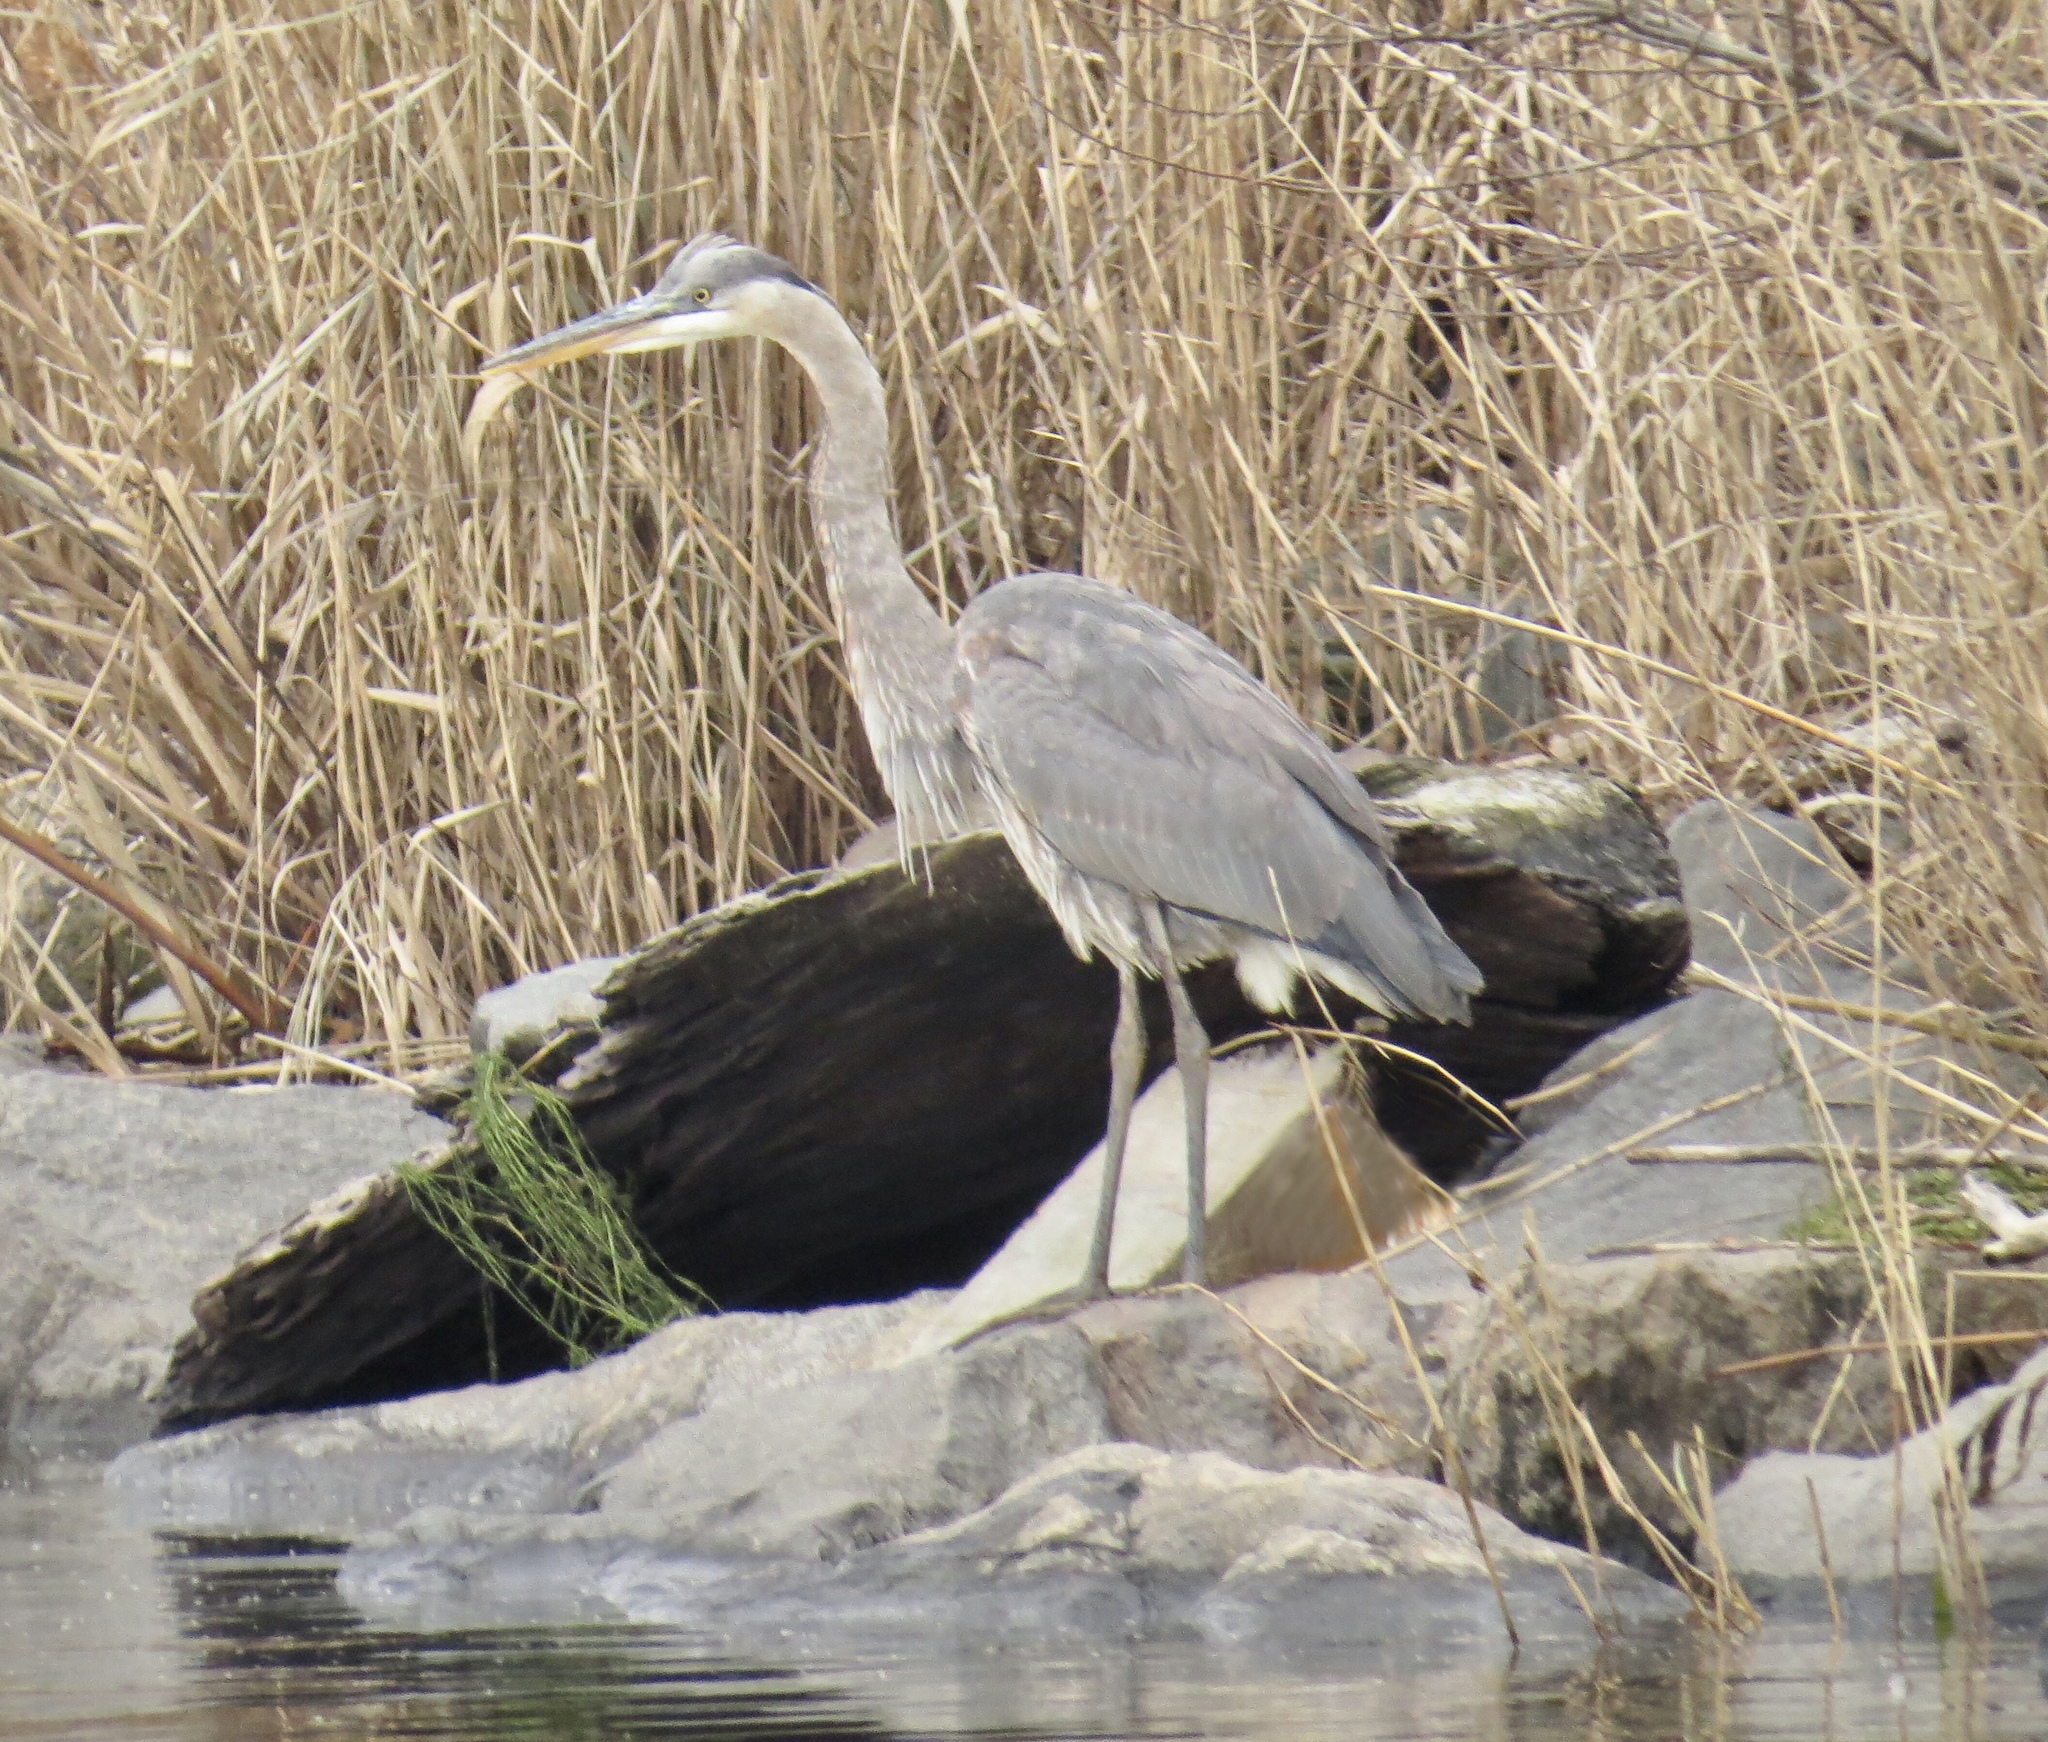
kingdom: Animalia
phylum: Chordata
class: Aves
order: Pelecaniformes
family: Ardeidae
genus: Ardea
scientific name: Ardea herodias
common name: Great blue heron
